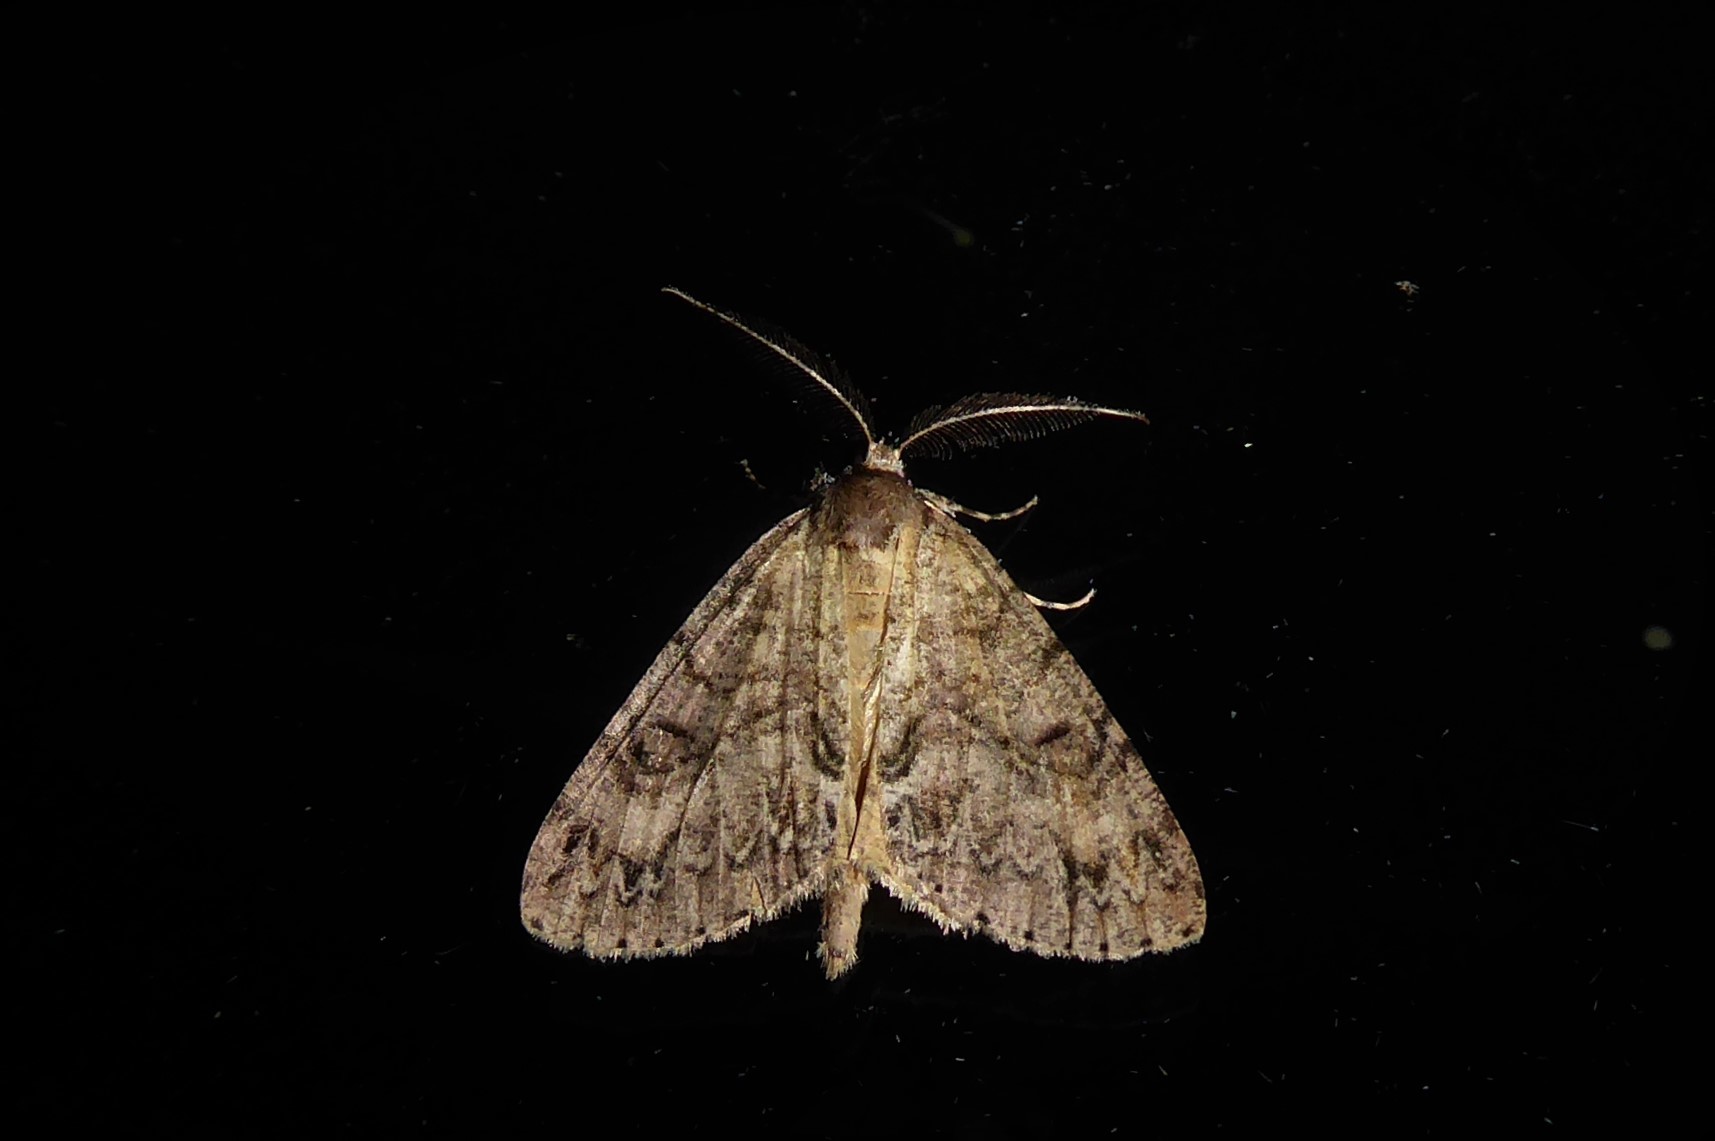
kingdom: Animalia
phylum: Arthropoda
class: Insecta
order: Lepidoptera
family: Geometridae
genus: Pseudocoremia
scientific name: Pseudocoremia suavis
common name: Common forest looper
